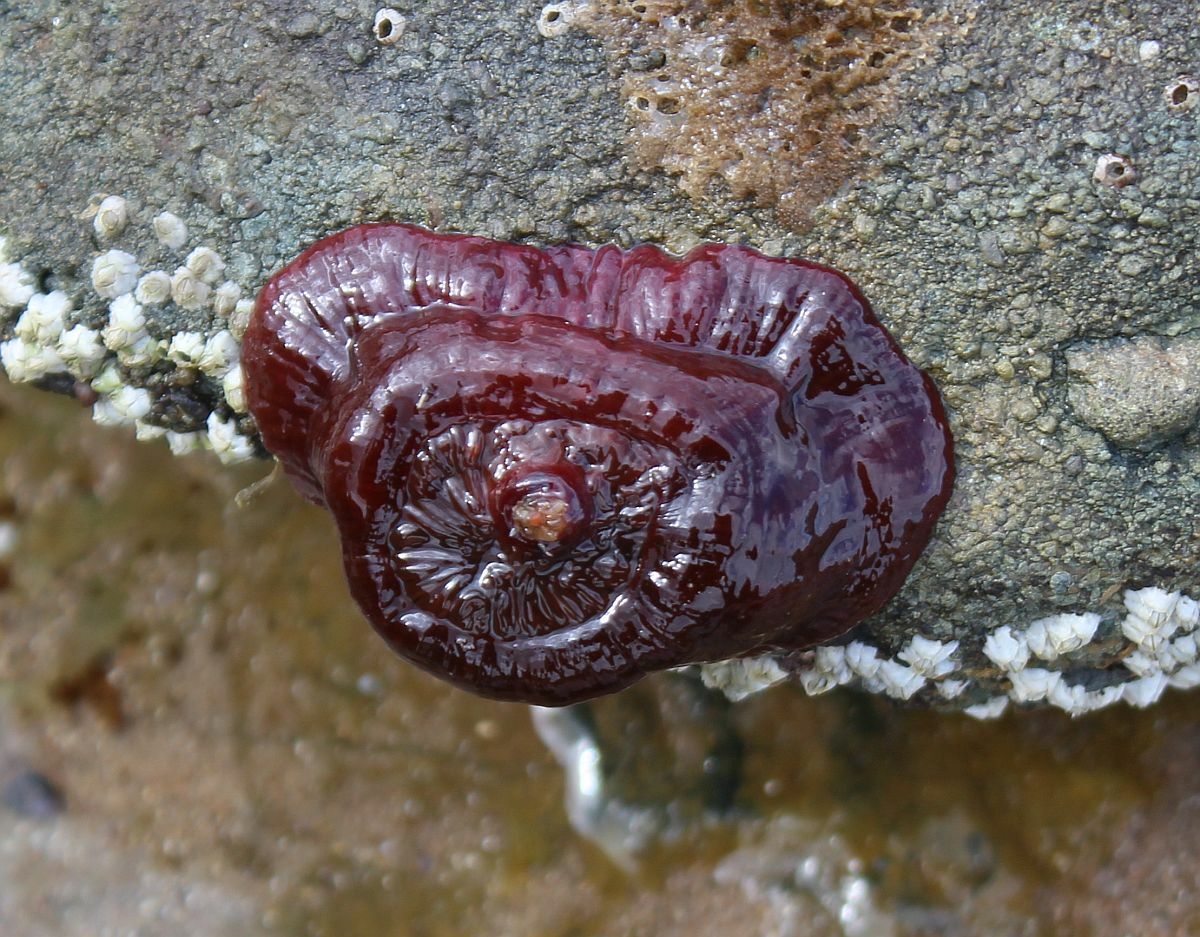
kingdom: Animalia
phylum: Cnidaria
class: Anthozoa
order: Actiniaria
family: Actiniidae
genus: Actinia
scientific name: Actinia equina
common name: Beadlet anemone
